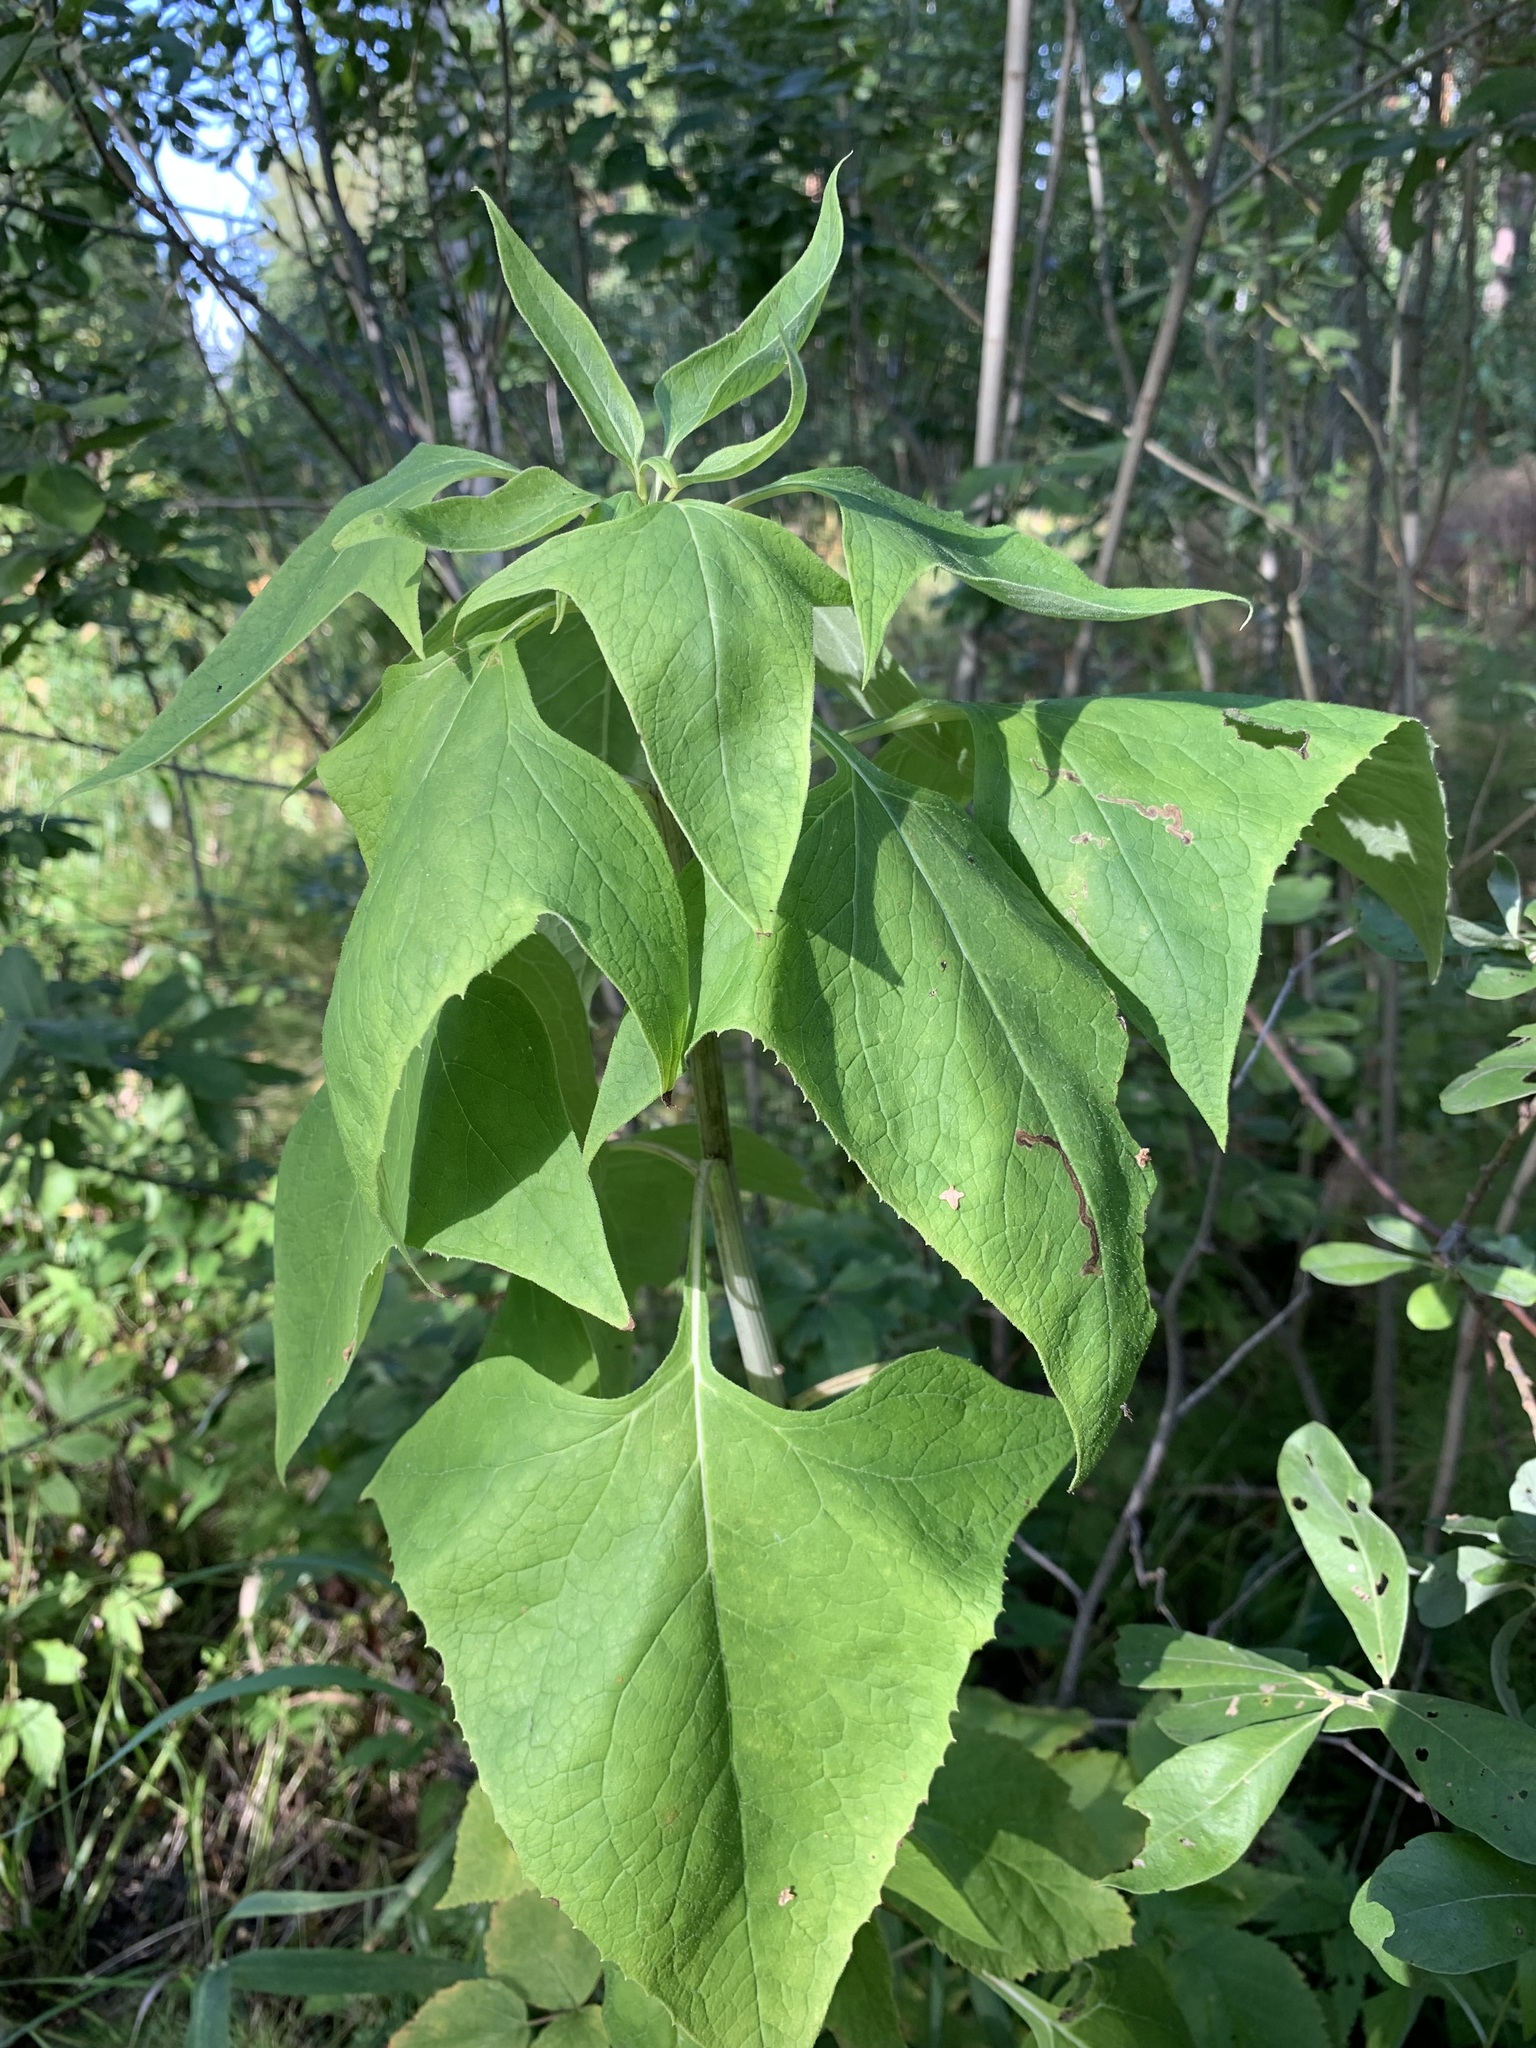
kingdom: Plantae
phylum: Tracheophyta
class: Magnoliopsida
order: Asterales
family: Asteraceae
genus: Parasenecio
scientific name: Parasenecio hastatus
